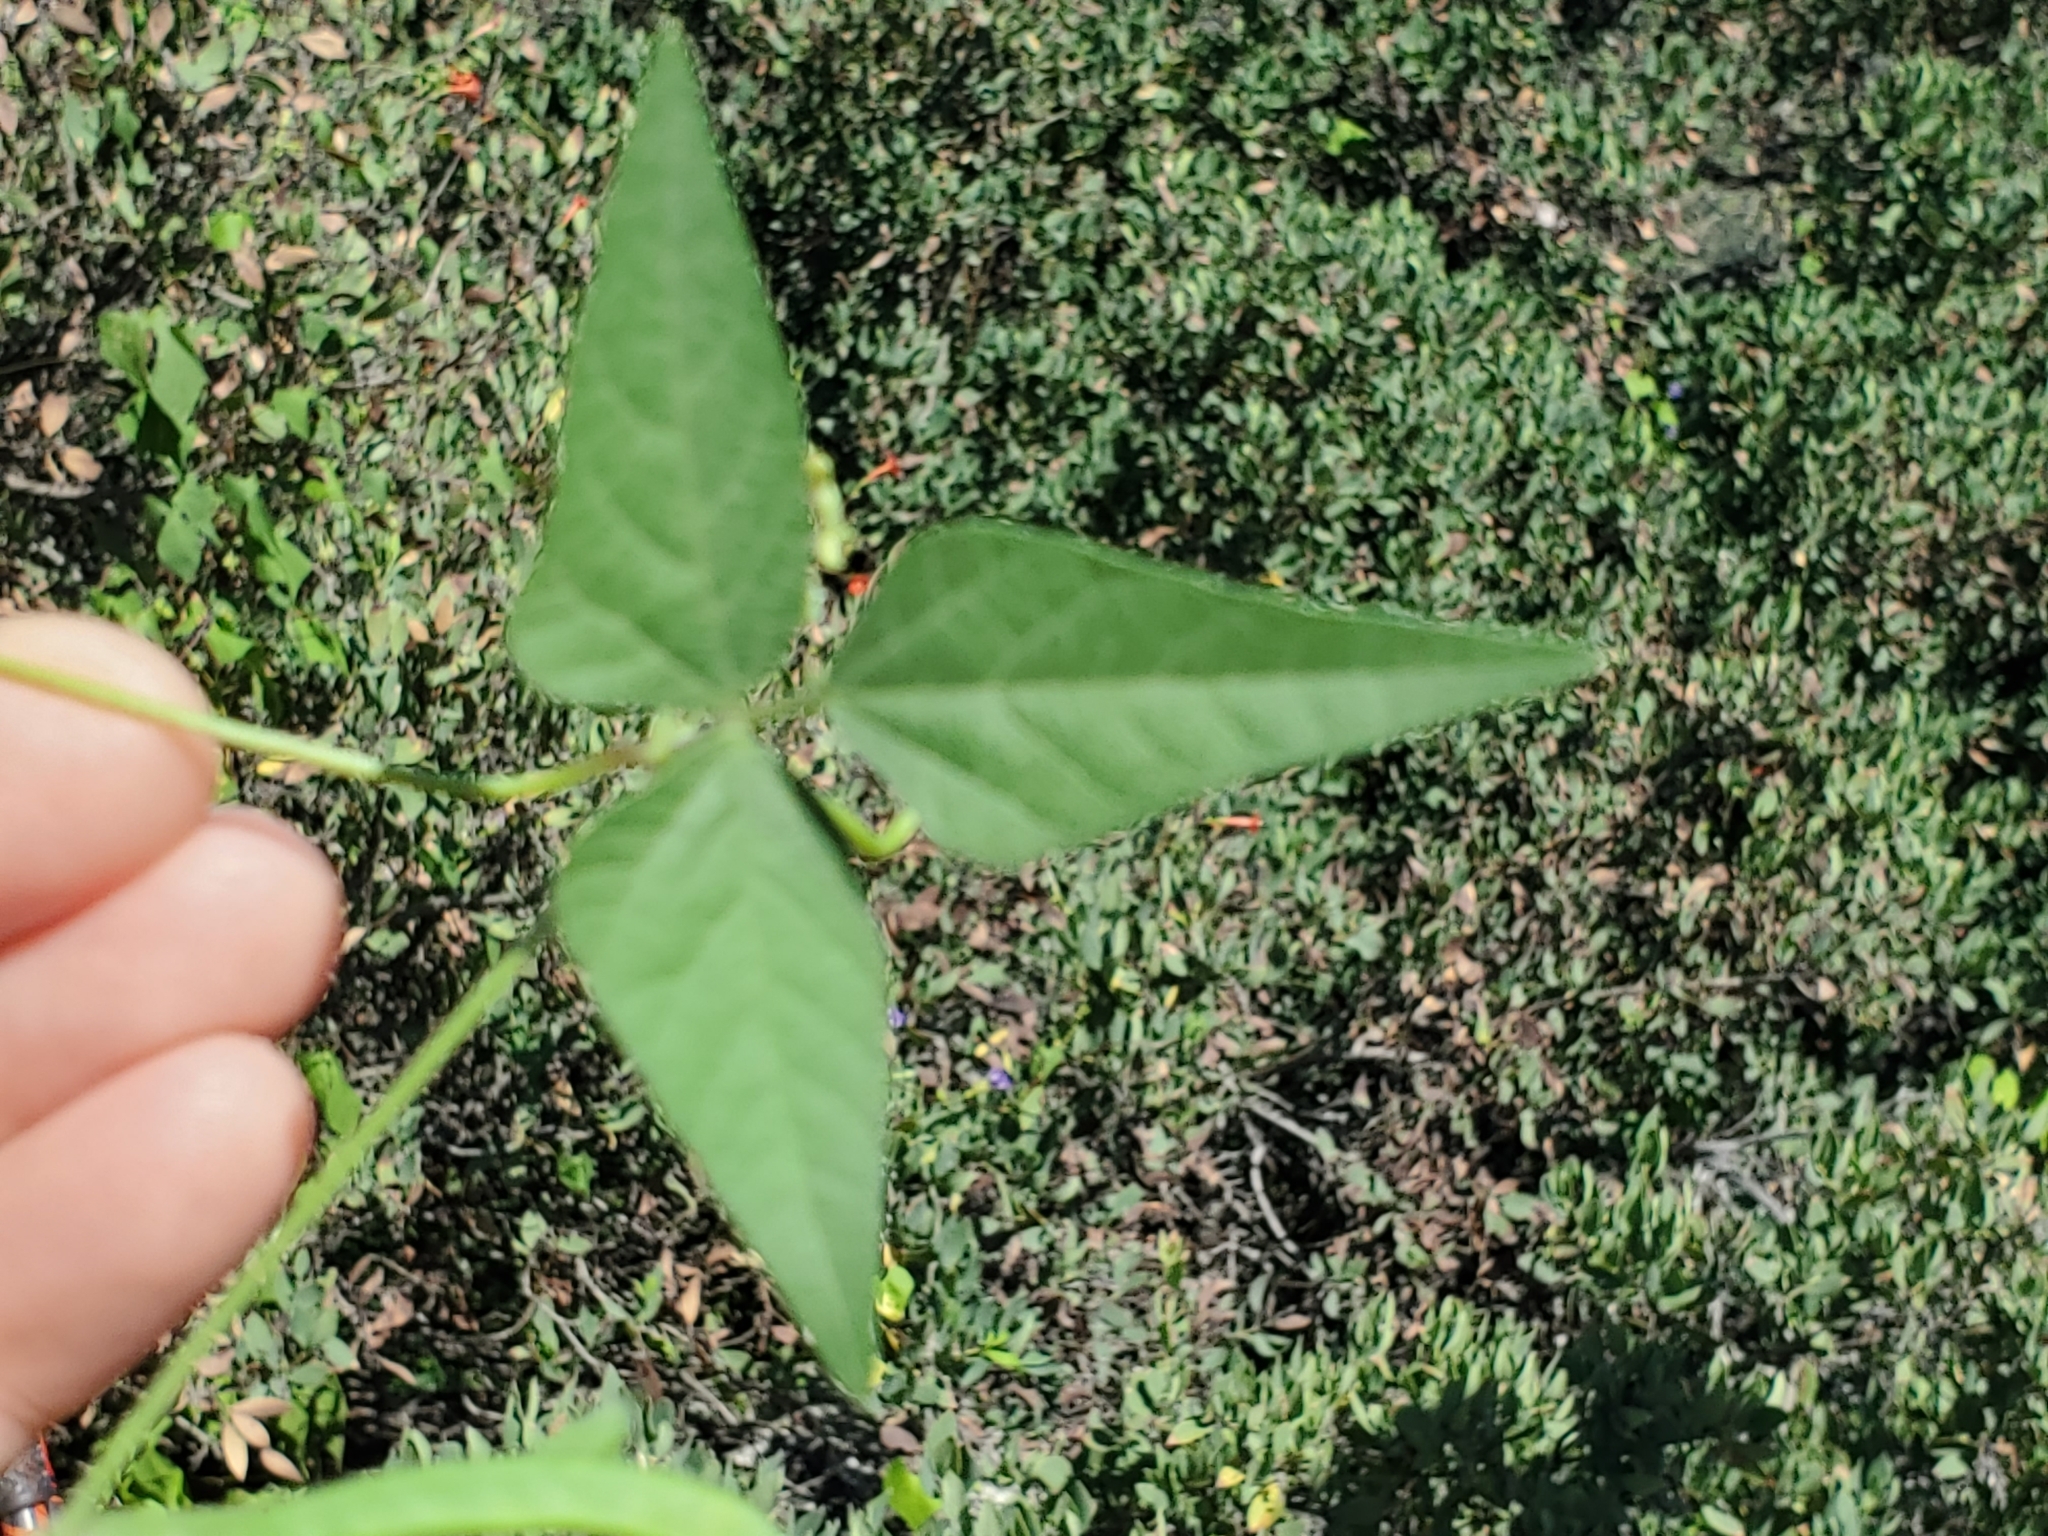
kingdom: Plantae
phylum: Tracheophyta
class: Magnoliopsida
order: Fabales
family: Fabaceae
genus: Phaseolus
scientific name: Phaseolus acutifolius
